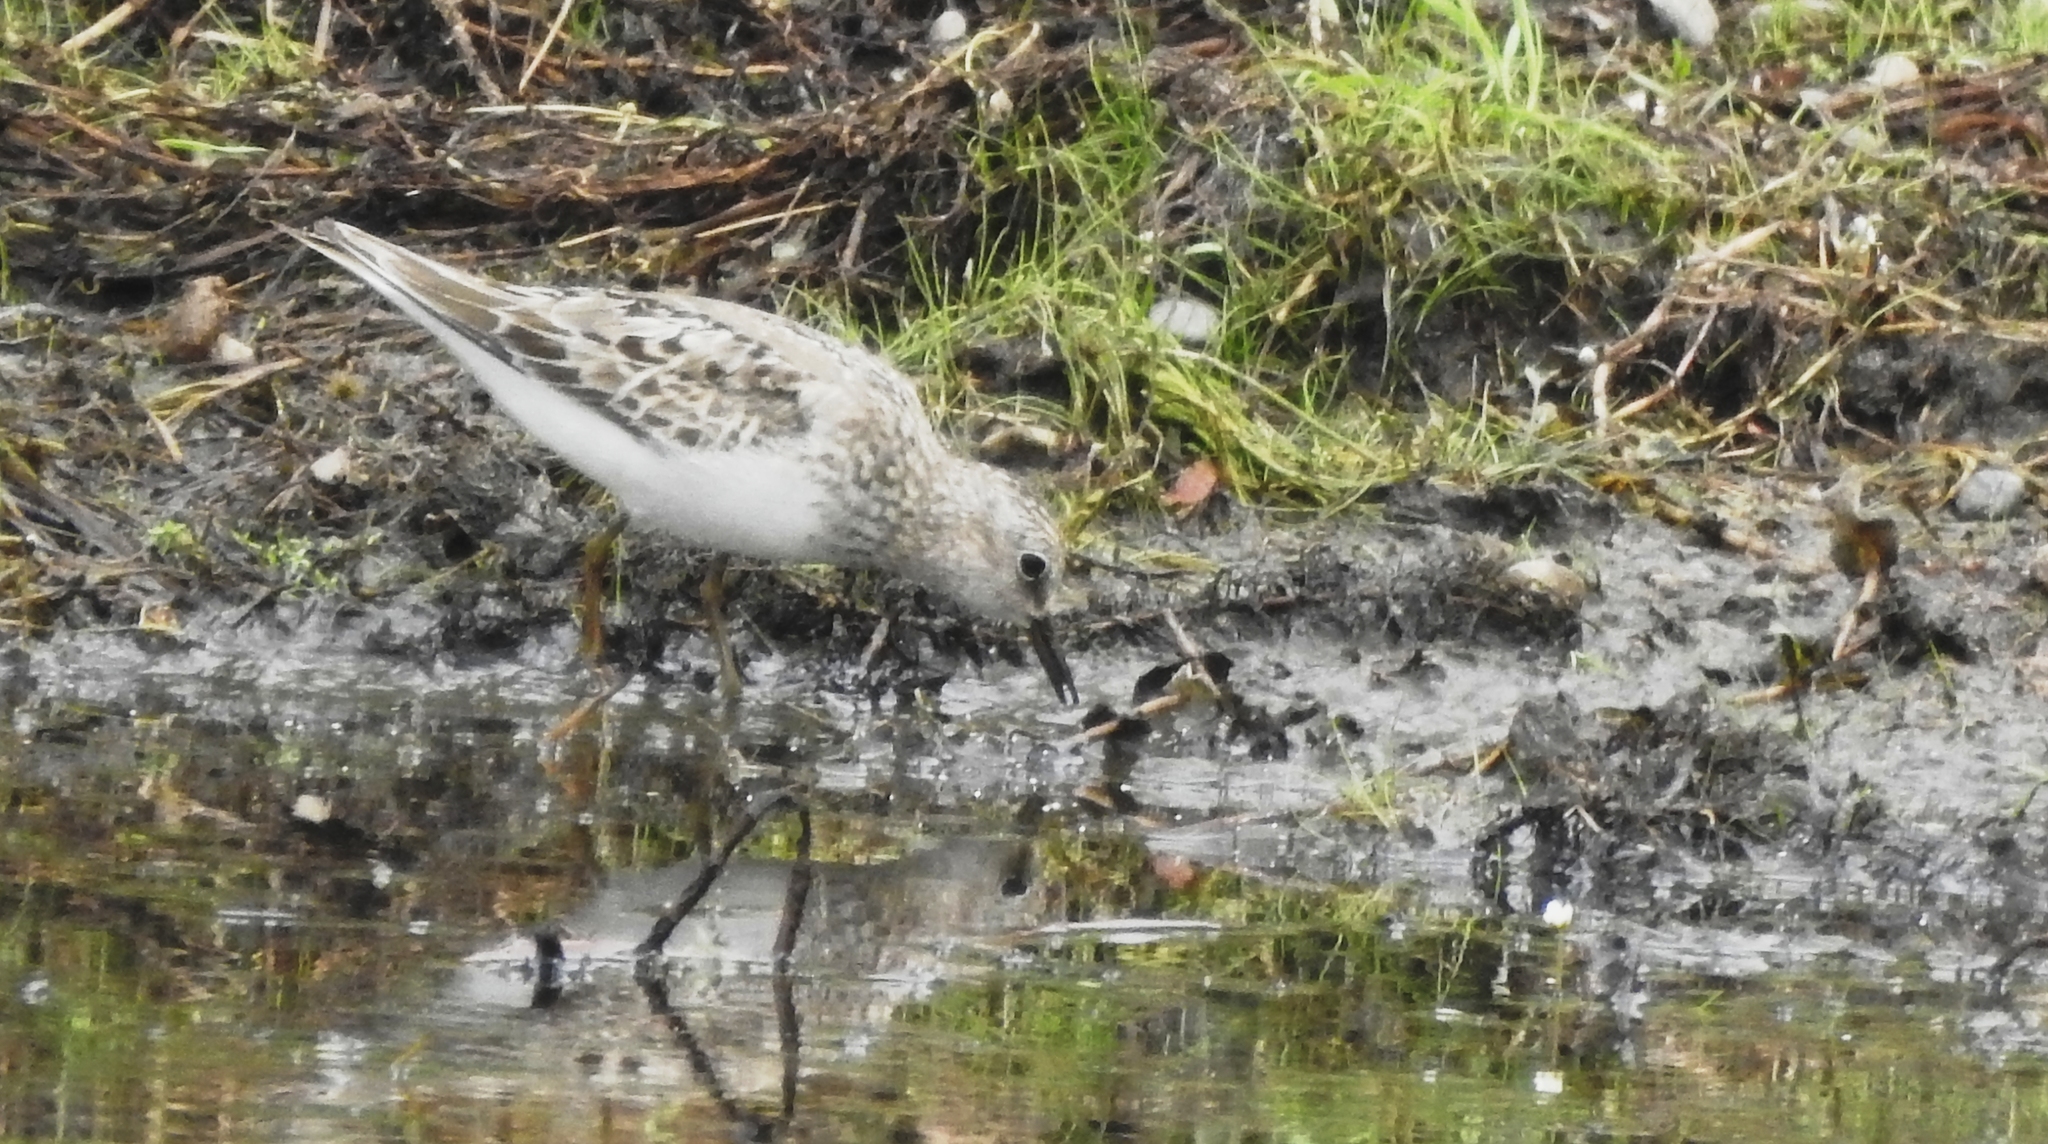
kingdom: Animalia
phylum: Chordata
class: Aves
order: Charadriiformes
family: Scolopacidae
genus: Calidris
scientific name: Calidris temminckii
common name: Temminck's stint
